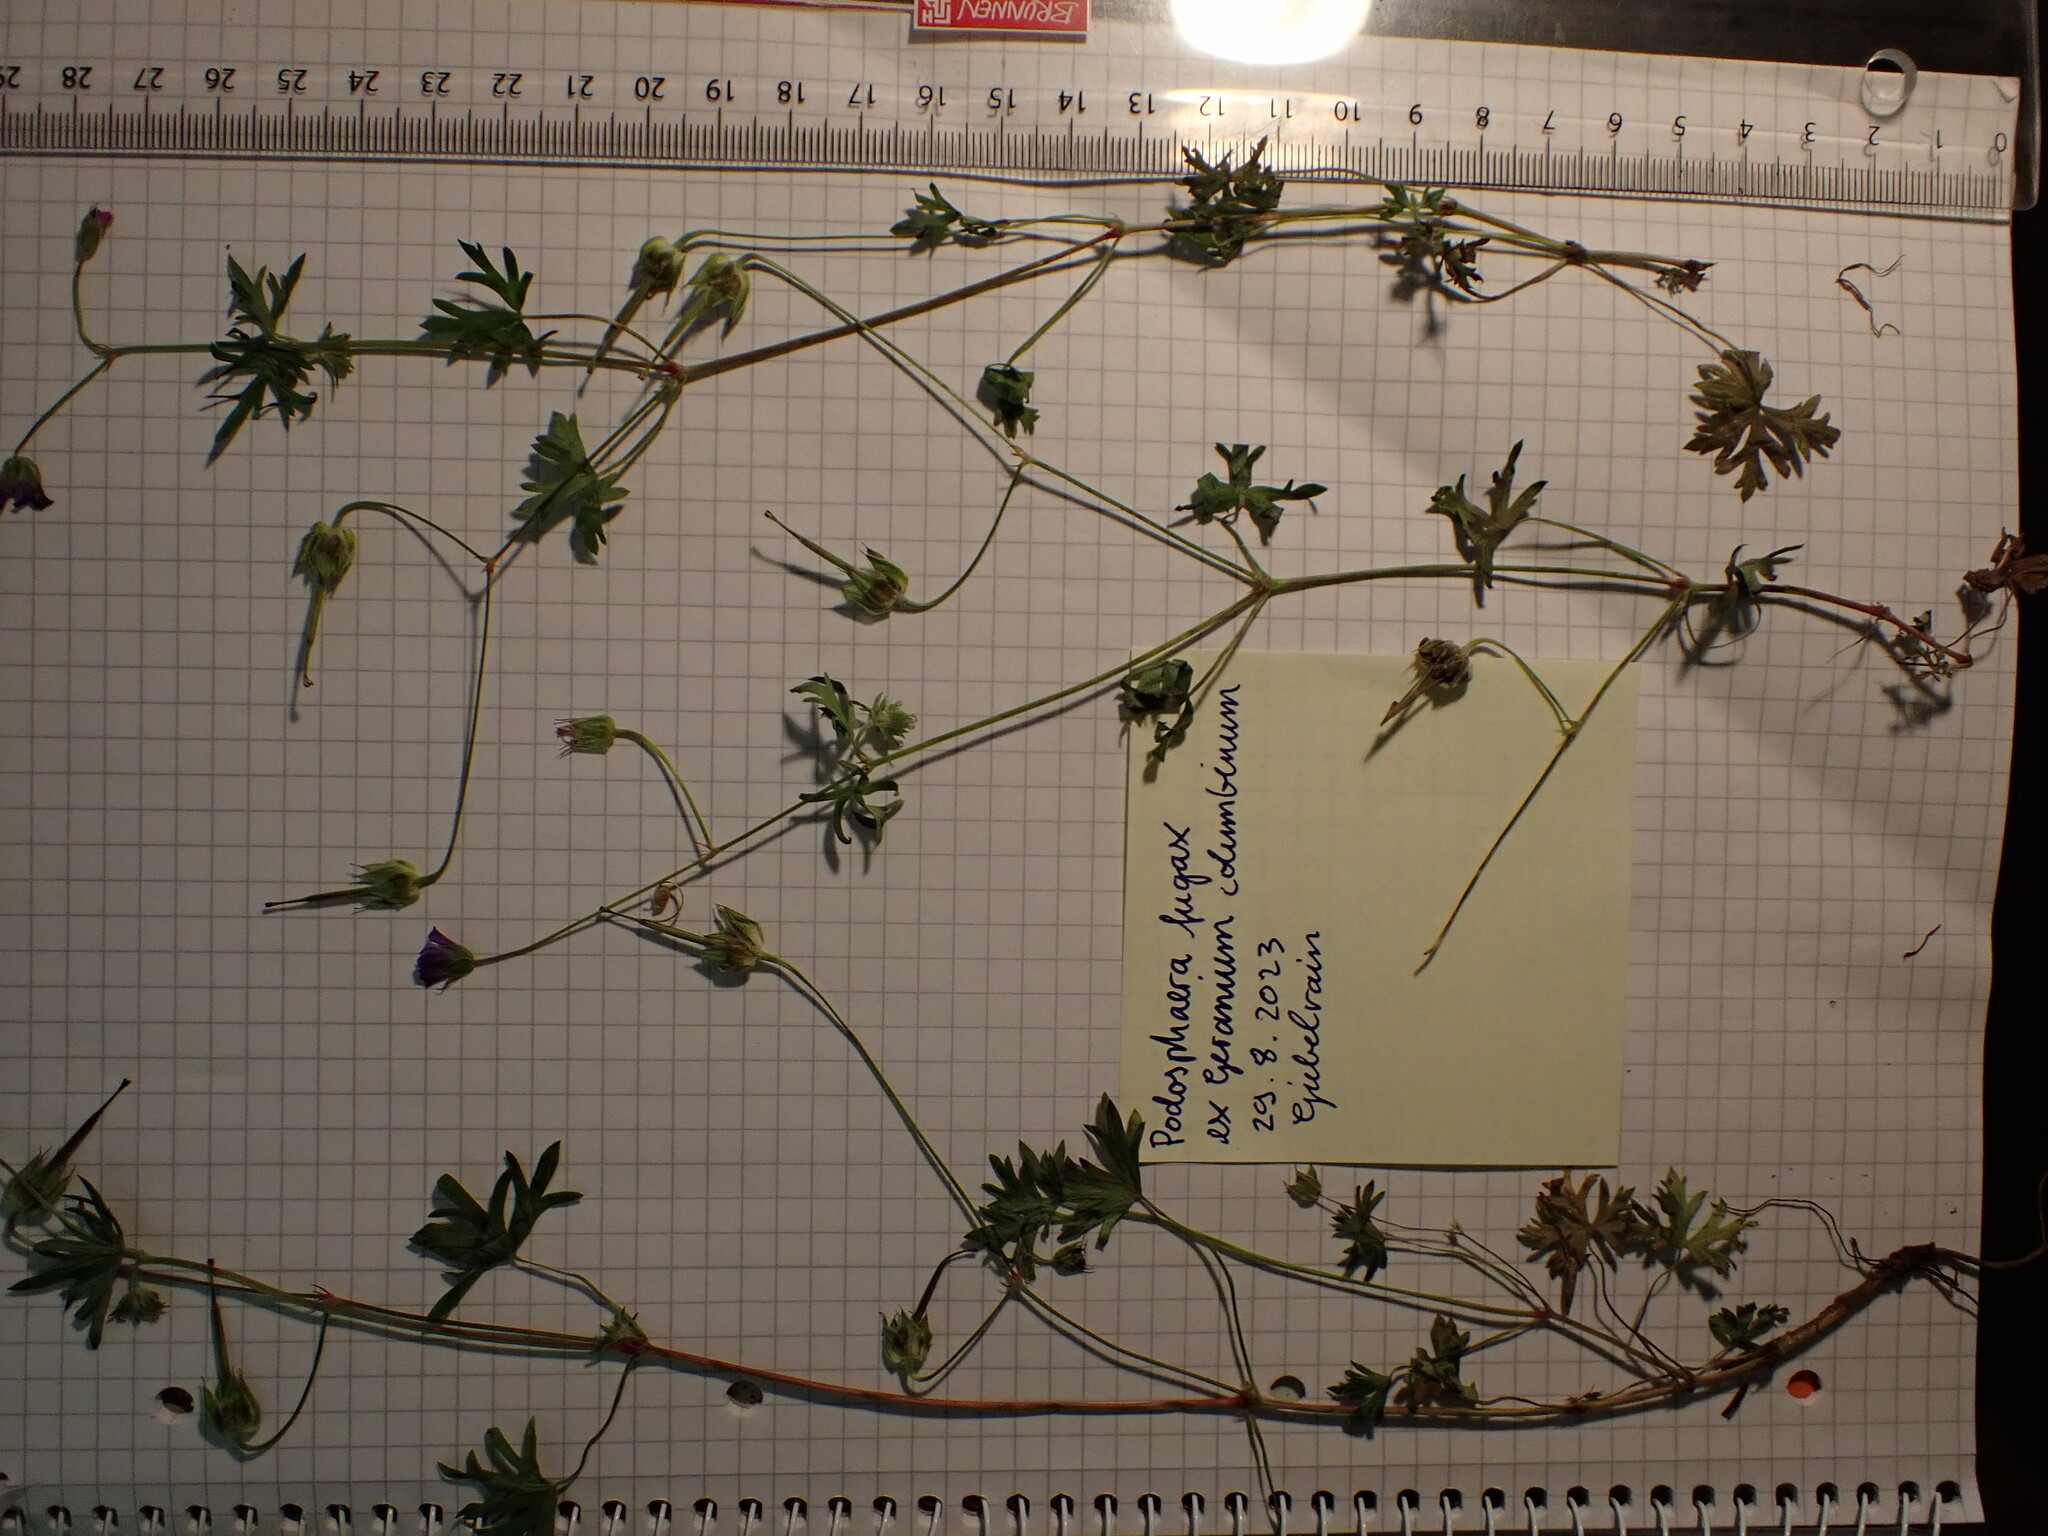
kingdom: Plantae
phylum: Tracheophyta
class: Magnoliopsida
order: Geraniales
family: Geraniaceae
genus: Geranium
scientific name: Geranium columbinum
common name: Long-stalked crane's-bill
